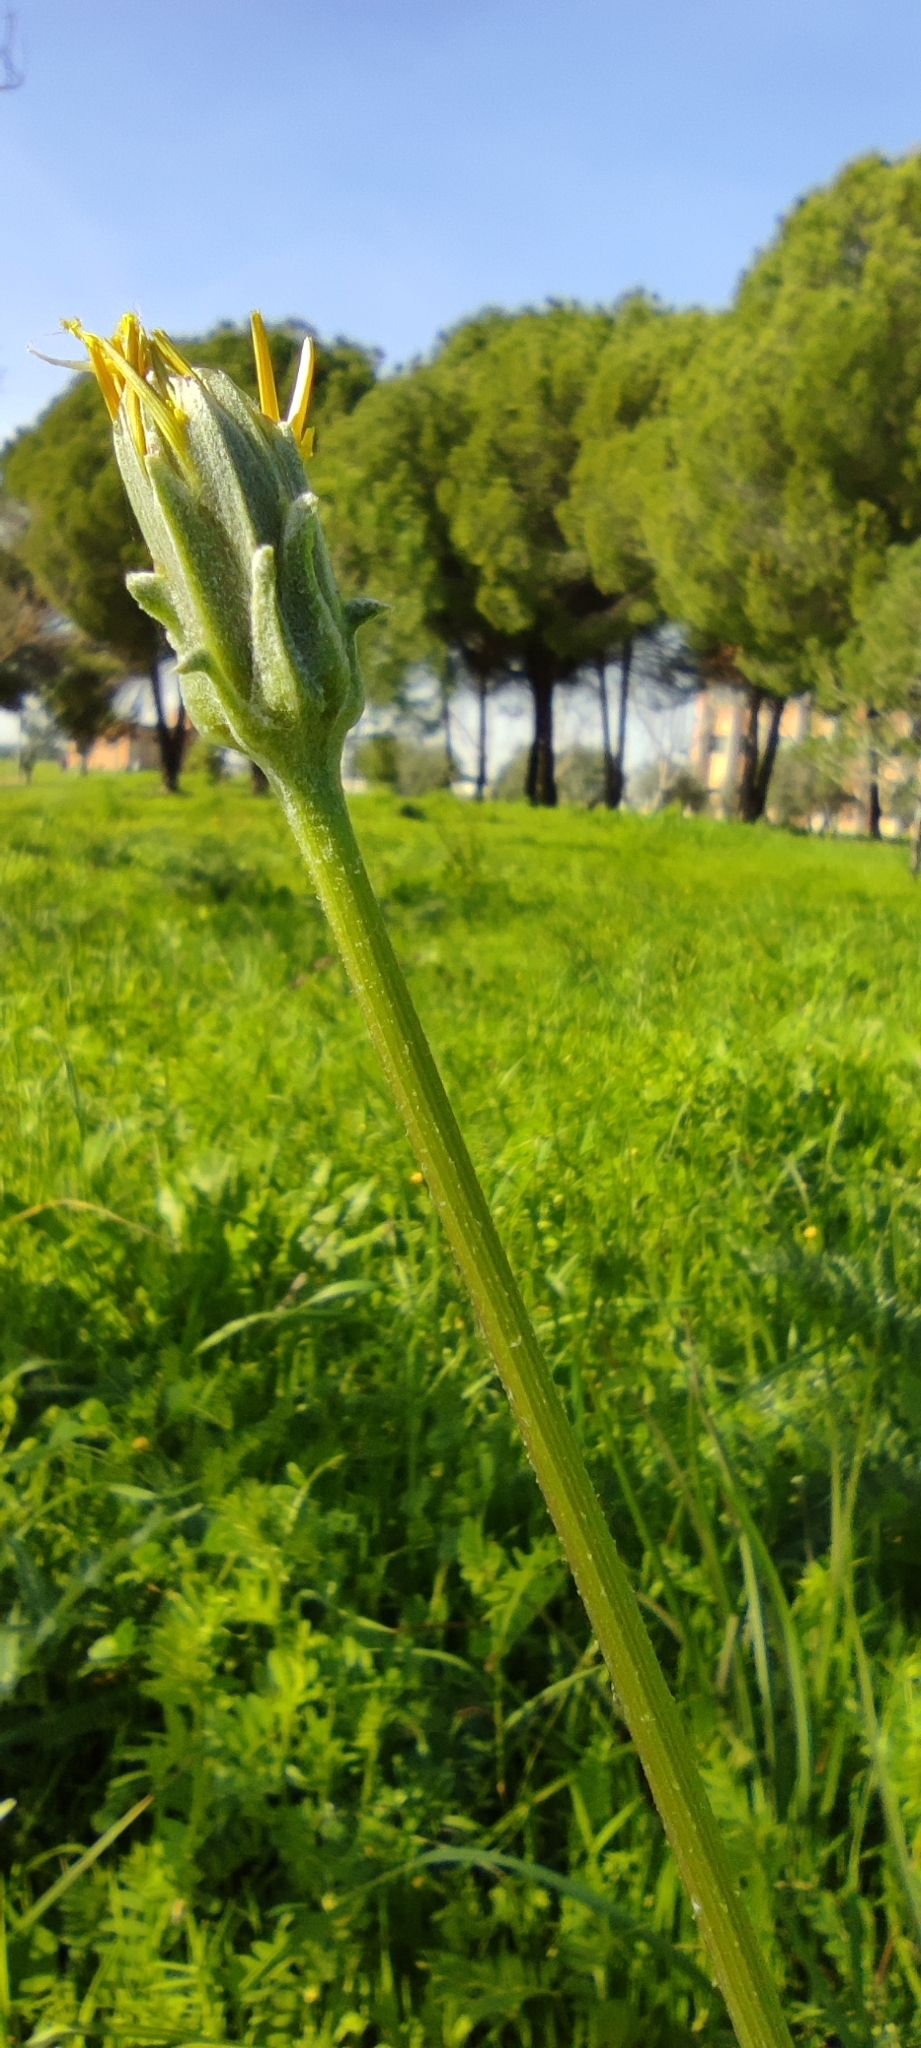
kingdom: Plantae
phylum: Tracheophyta
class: Magnoliopsida
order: Asterales
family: Asteraceae
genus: Scorzonera
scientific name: Scorzonera laciniata
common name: Cutleaf vipergrass
